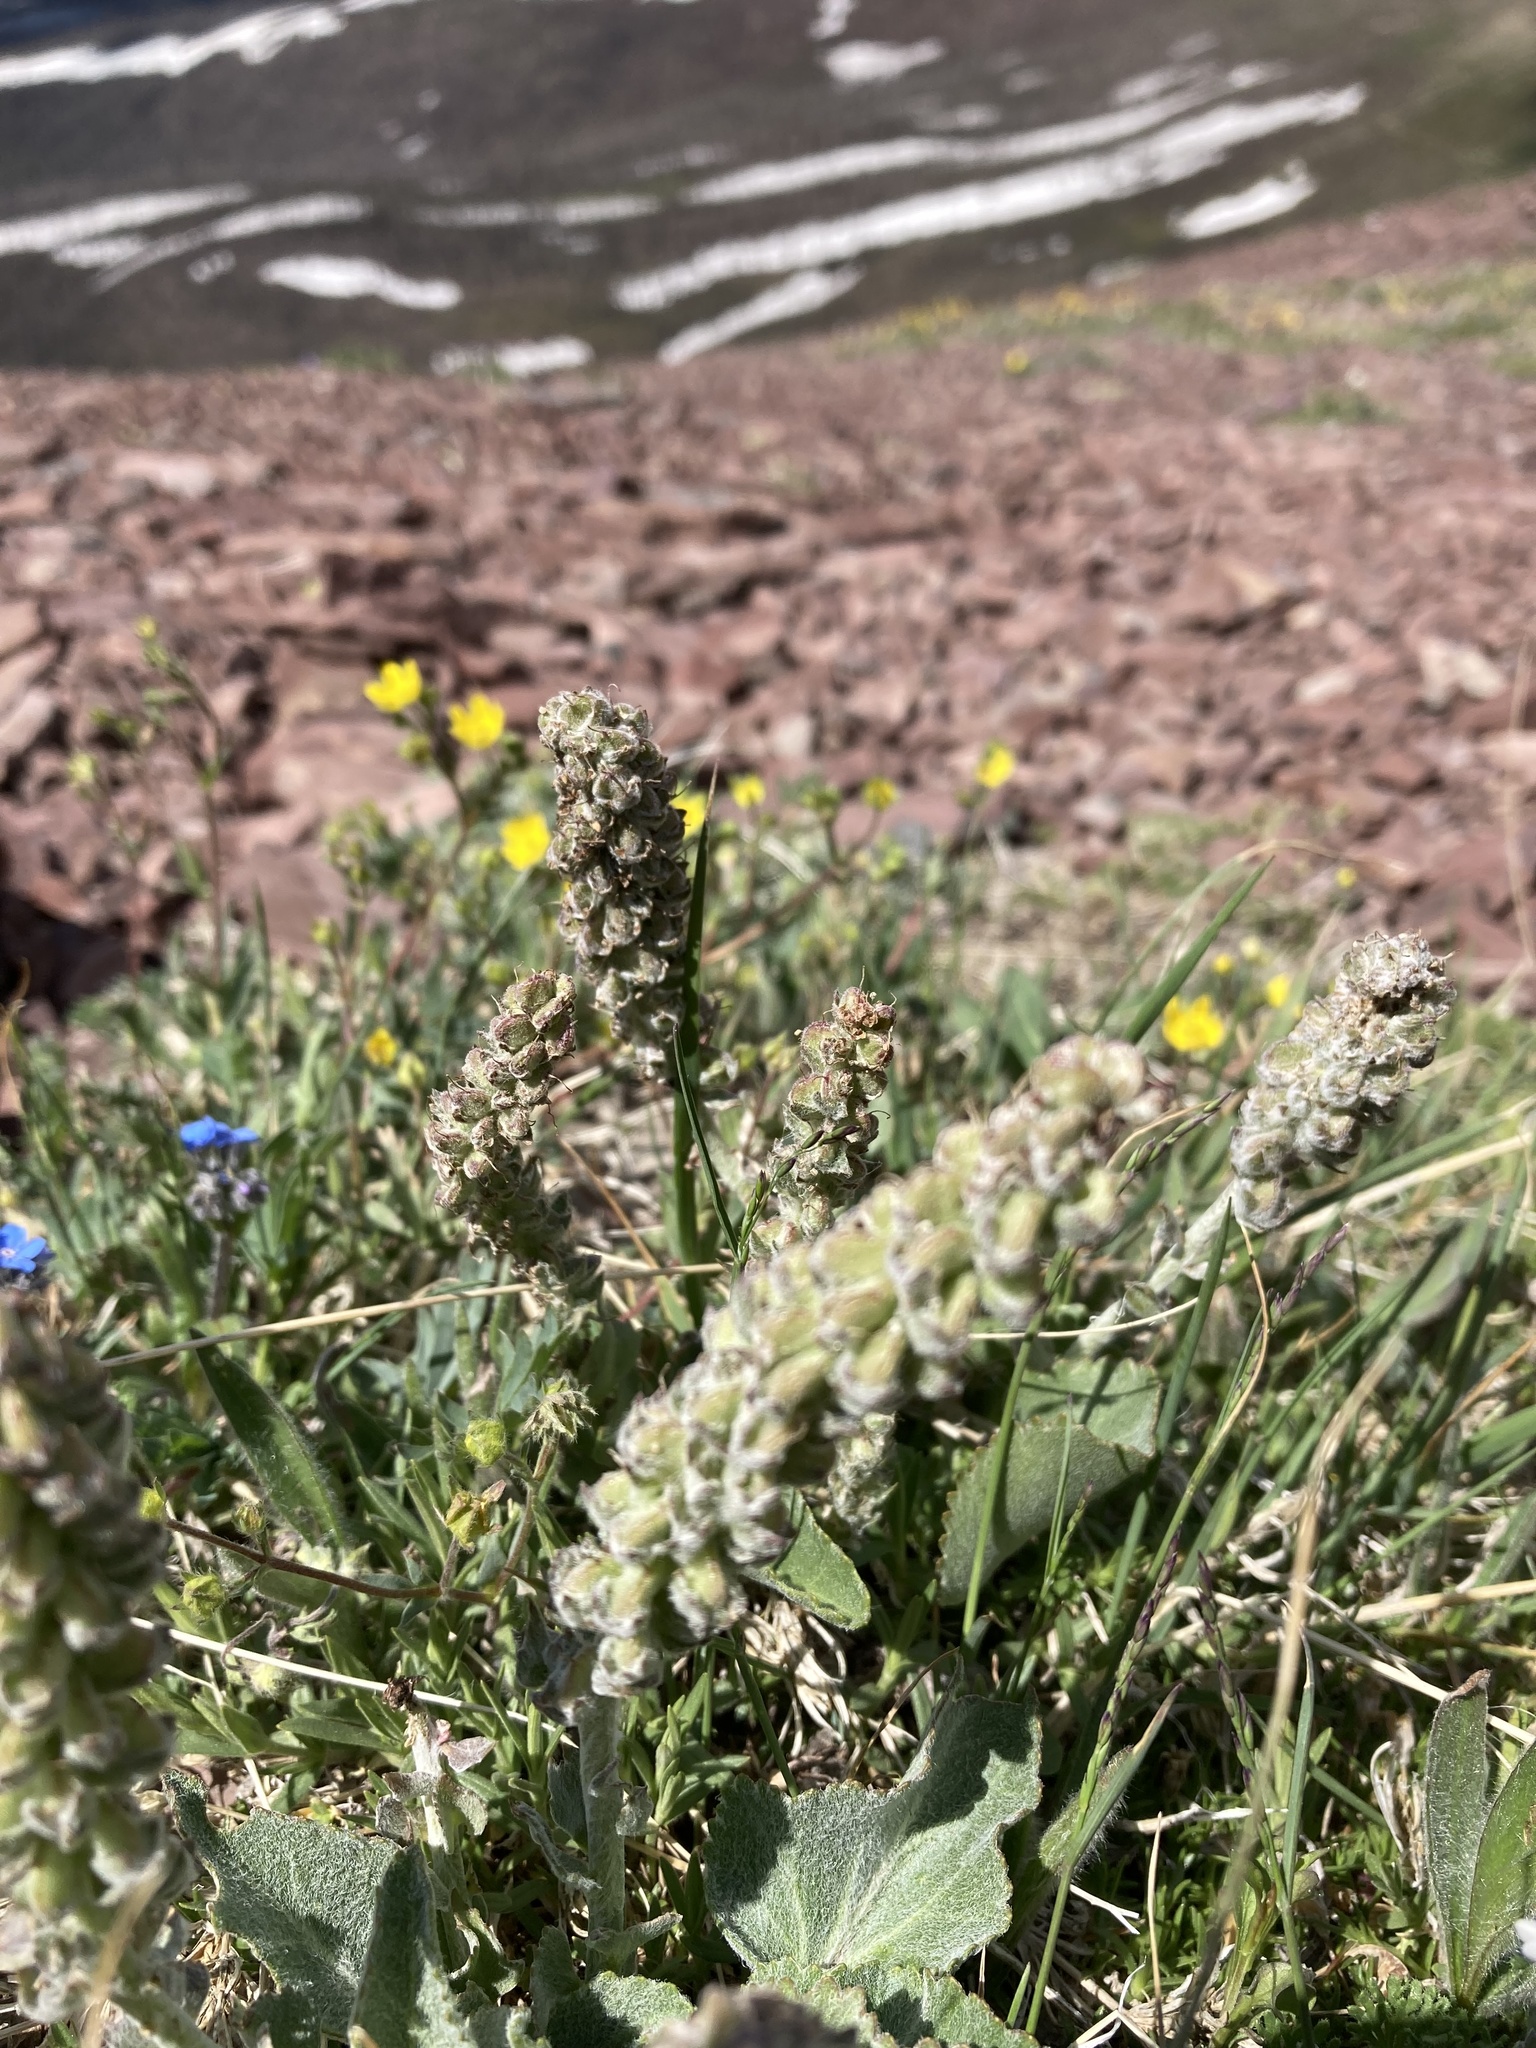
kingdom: Plantae
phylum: Tracheophyta
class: Magnoliopsida
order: Lamiales
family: Plantaginaceae
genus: Synthyris
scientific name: Synthyris wyomingensis
